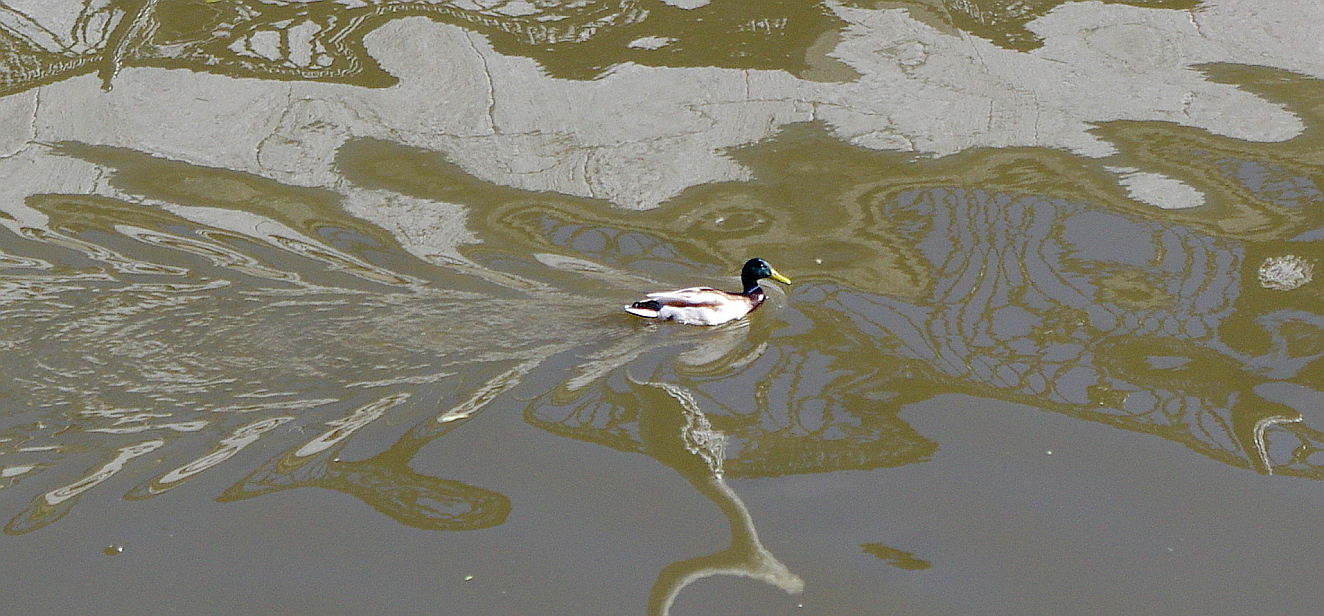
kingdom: Animalia
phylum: Chordata
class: Aves
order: Anseriformes
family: Anatidae
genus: Anas
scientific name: Anas platyrhynchos
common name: Mallard
